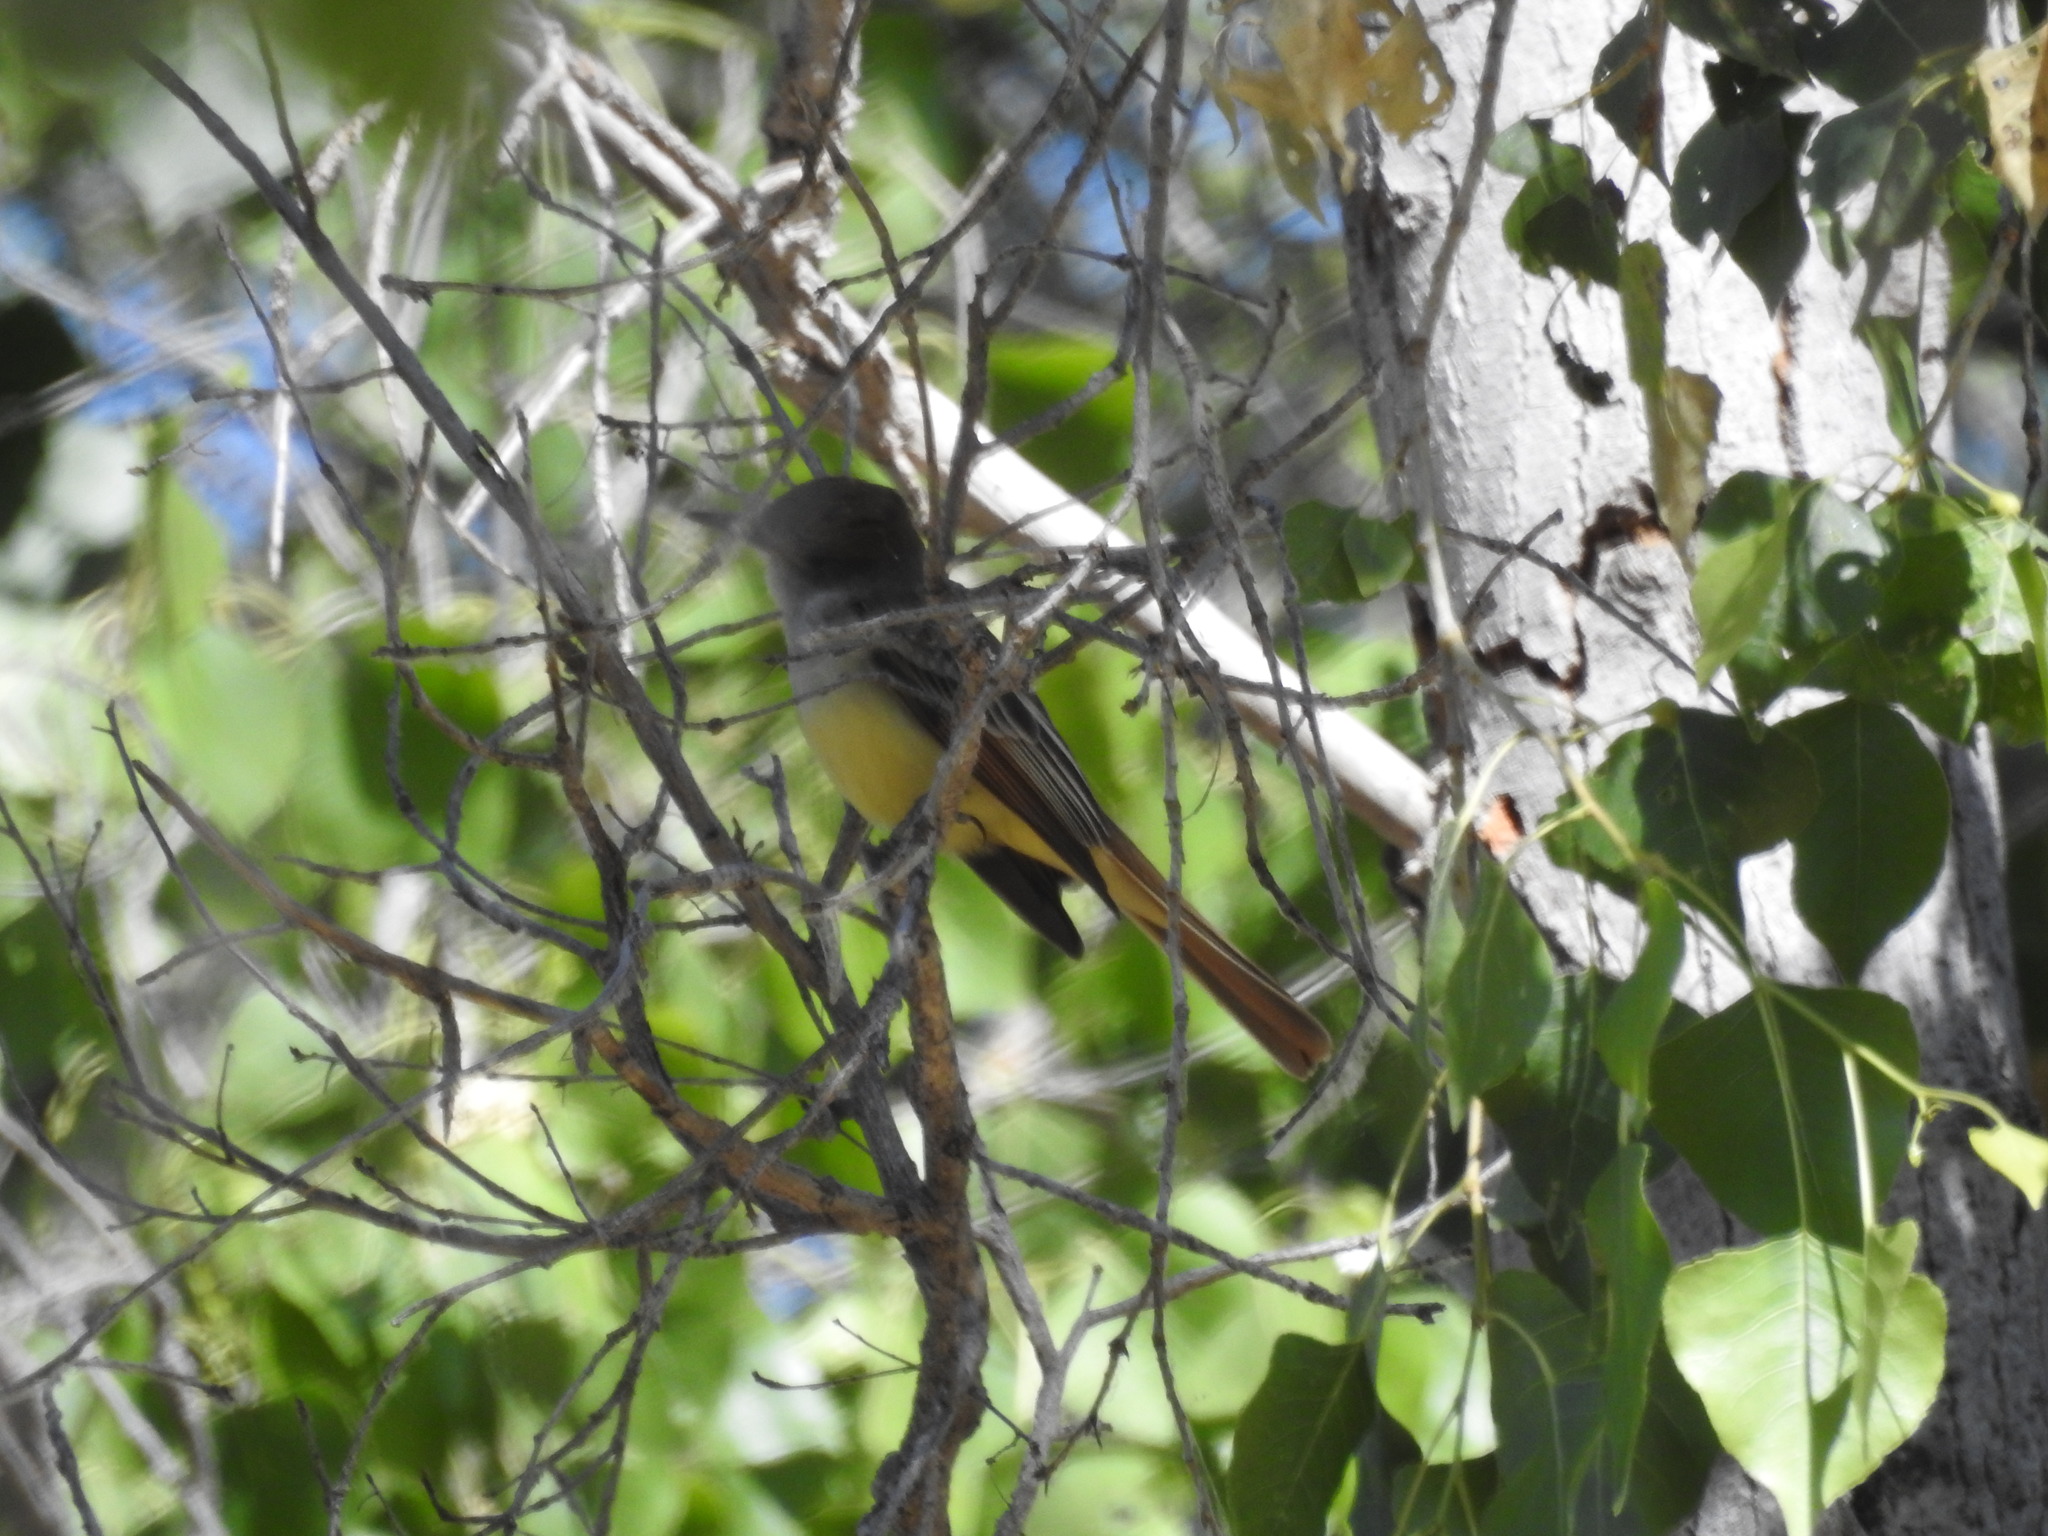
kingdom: Animalia
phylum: Chordata
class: Aves
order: Passeriformes
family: Tyrannidae
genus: Myiarchus
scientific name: Myiarchus tyrannulus
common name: Brown-crested flycatcher
